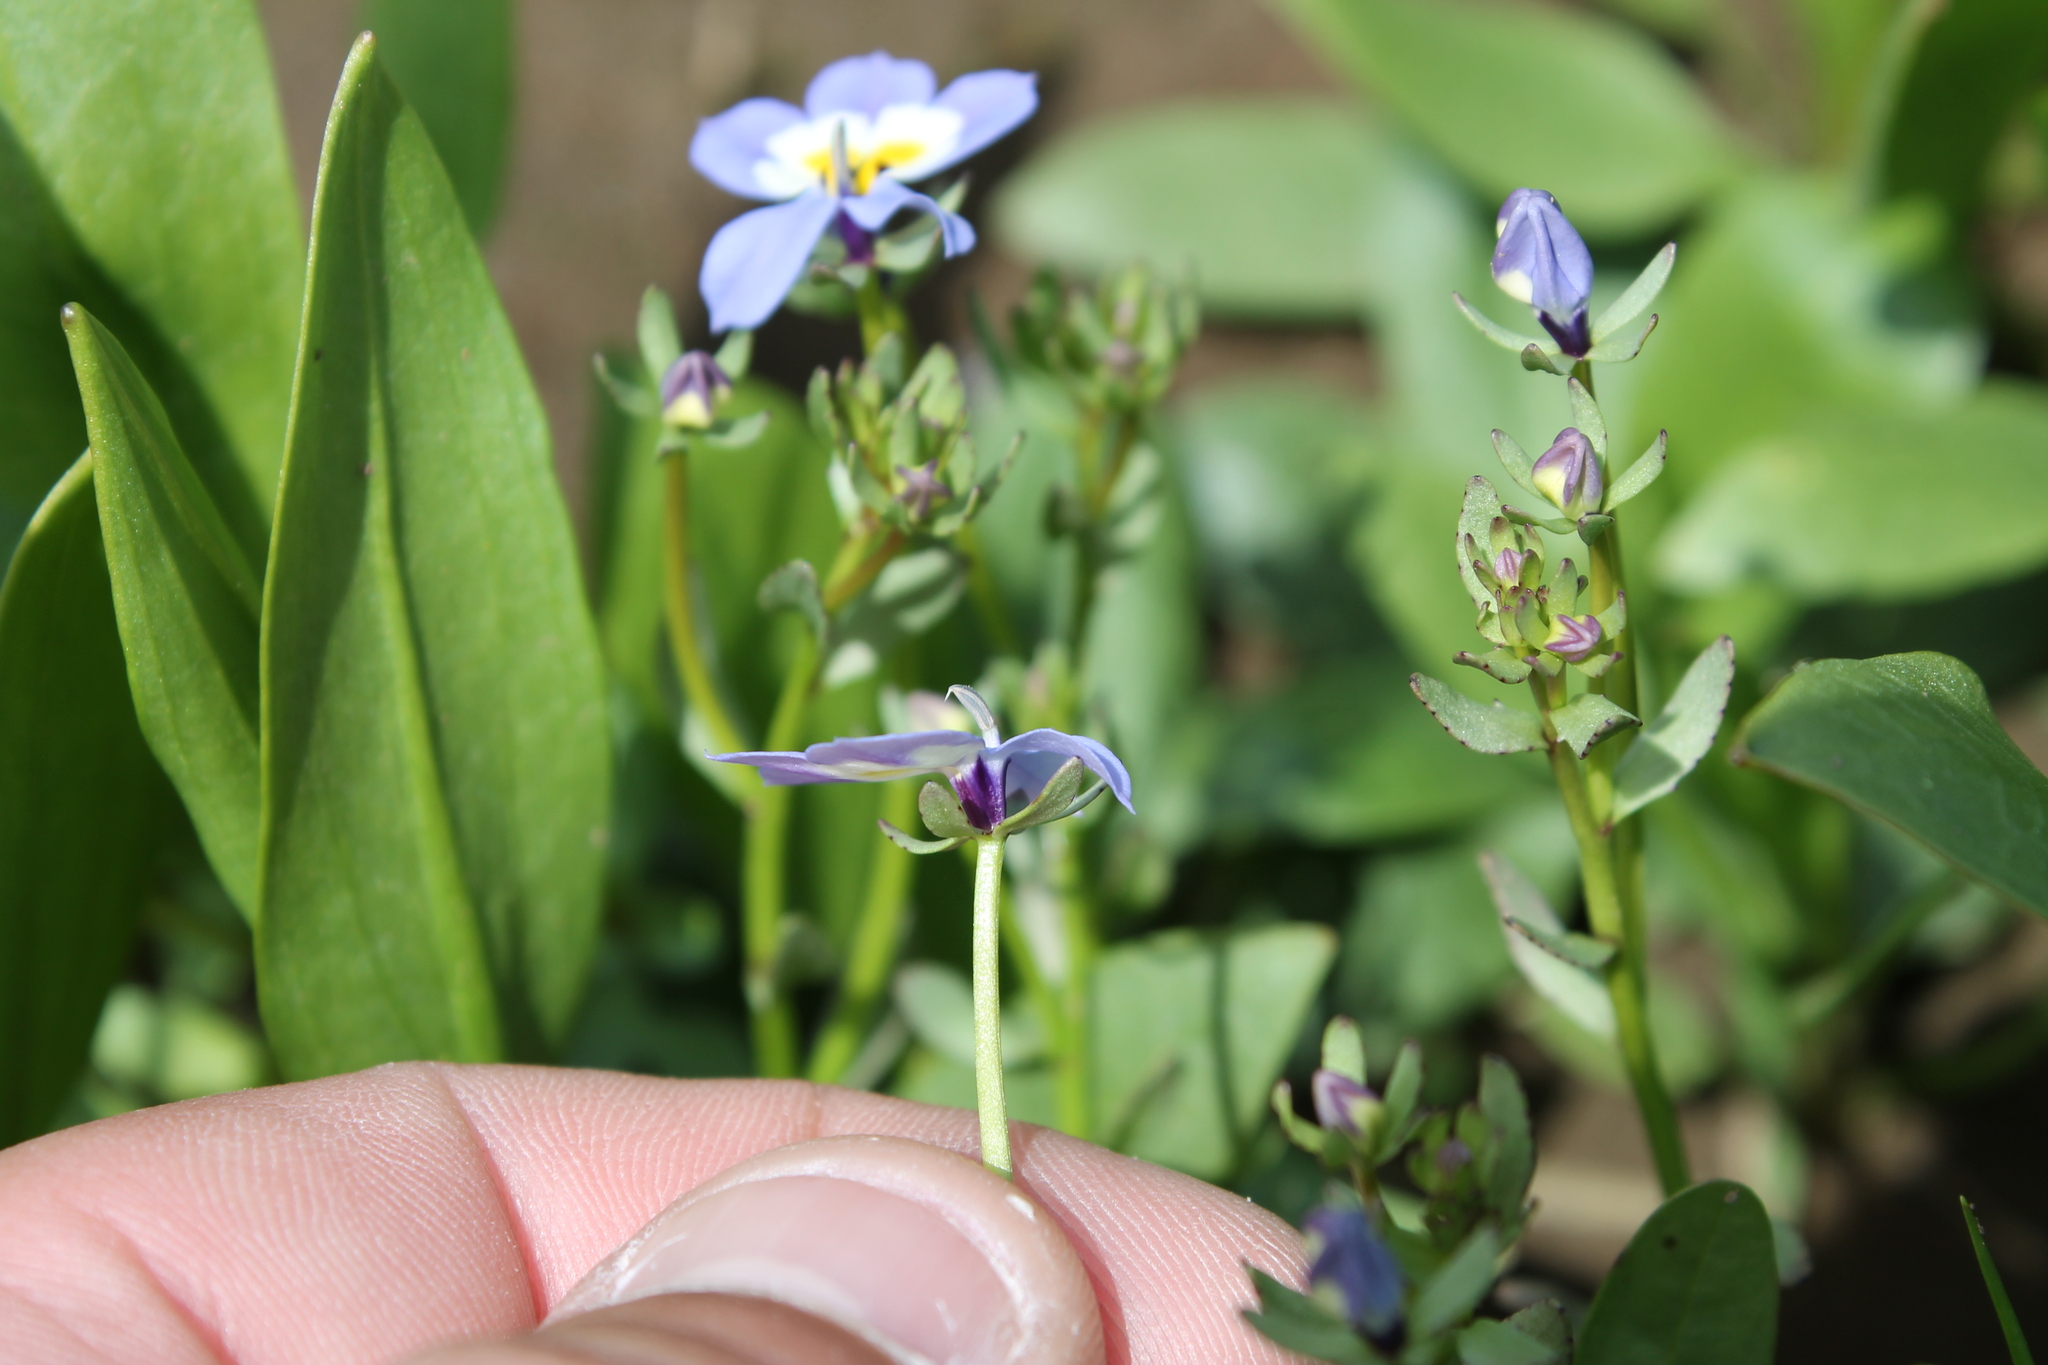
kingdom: Plantae
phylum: Tracheophyta
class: Magnoliopsida
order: Asterales
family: Campanulaceae
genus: Downingia
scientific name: Downingia pulchella
